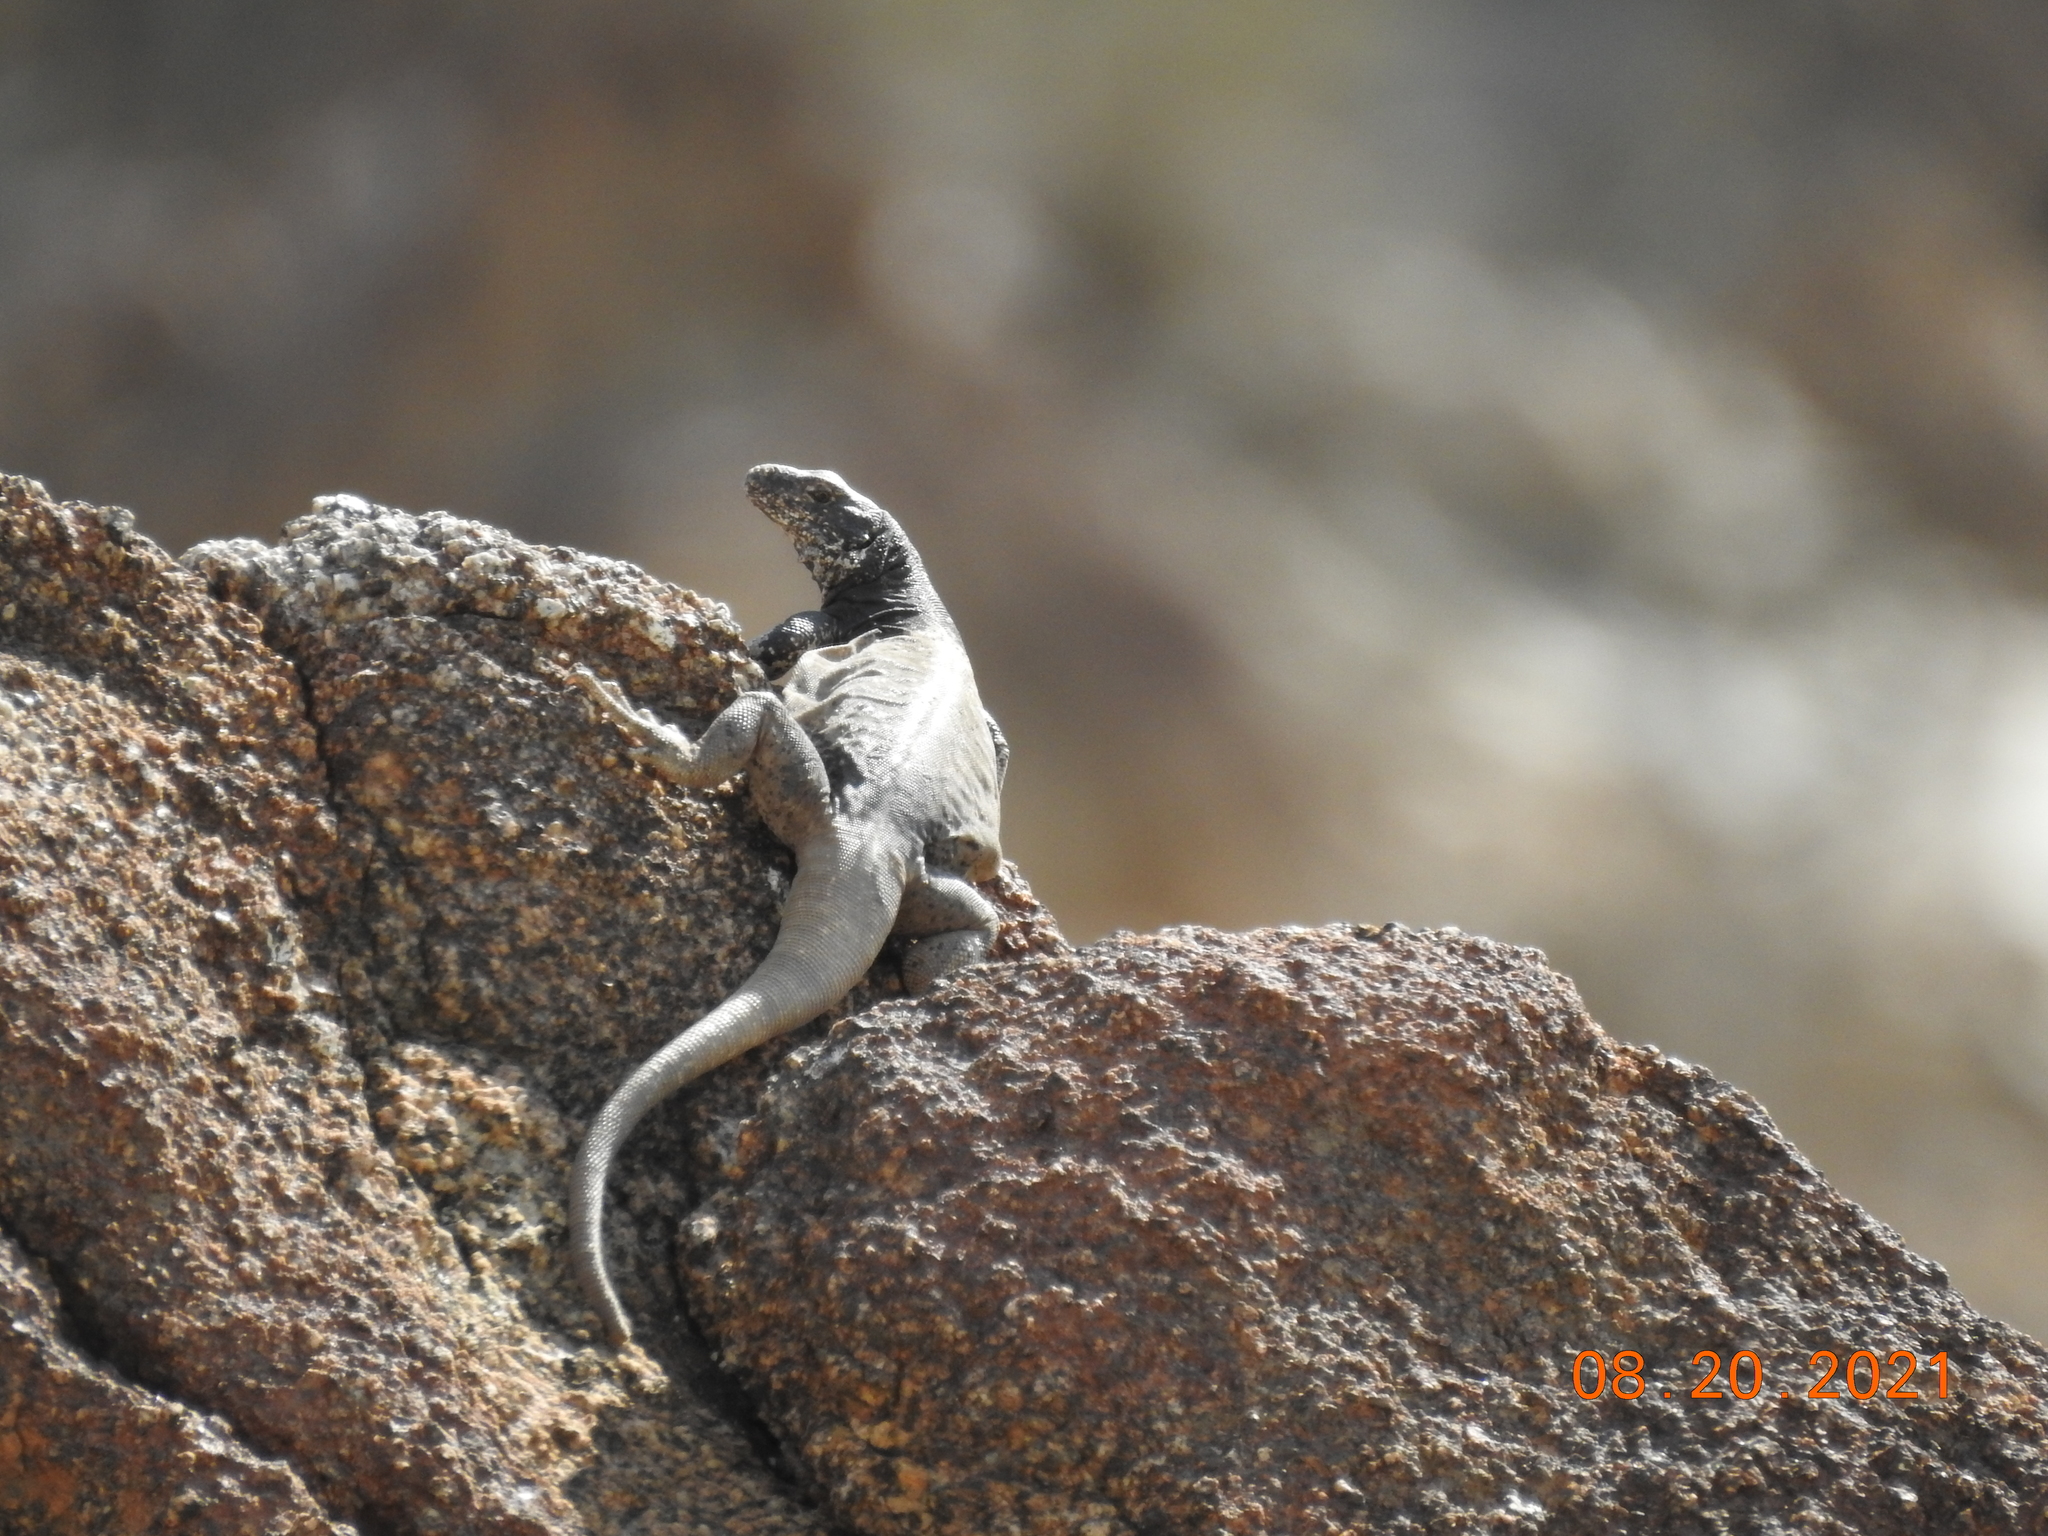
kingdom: Animalia
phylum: Chordata
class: Squamata
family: Iguanidae
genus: Sauromalus
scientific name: Sauromalus ater
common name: Northern chuckwalla
